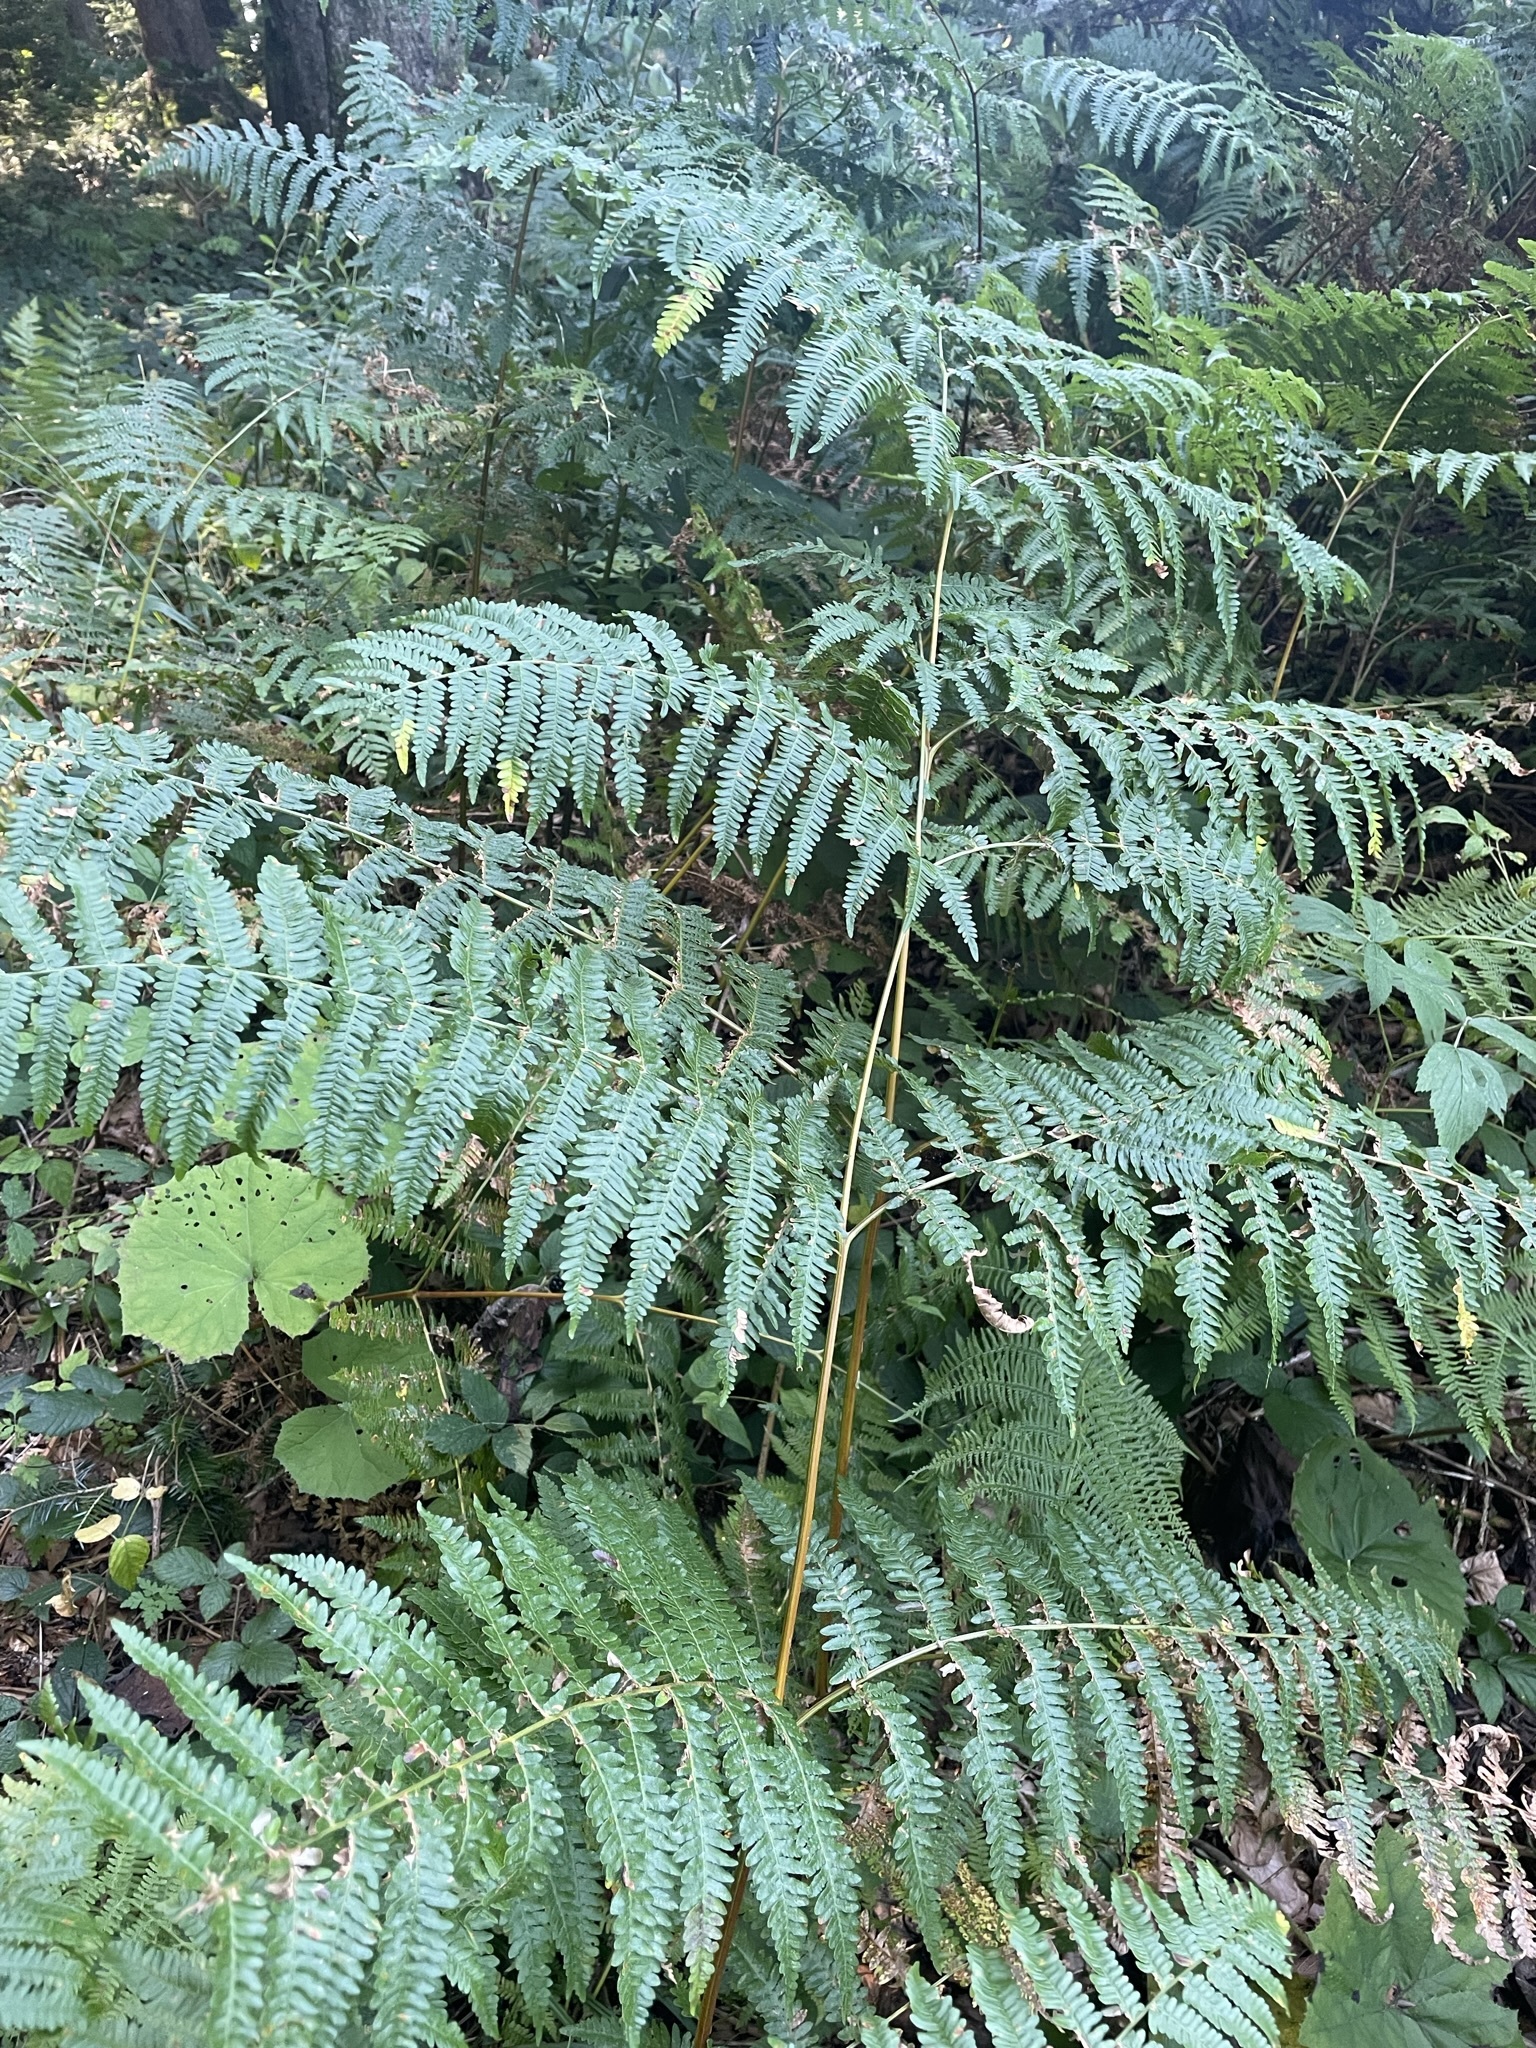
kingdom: Plantae
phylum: Tracheophyta
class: Polypodiopsida
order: Polypodiales
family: Dennstaedtiaceae
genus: Pteridium
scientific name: Pteridium aquilinum
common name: Bracken
